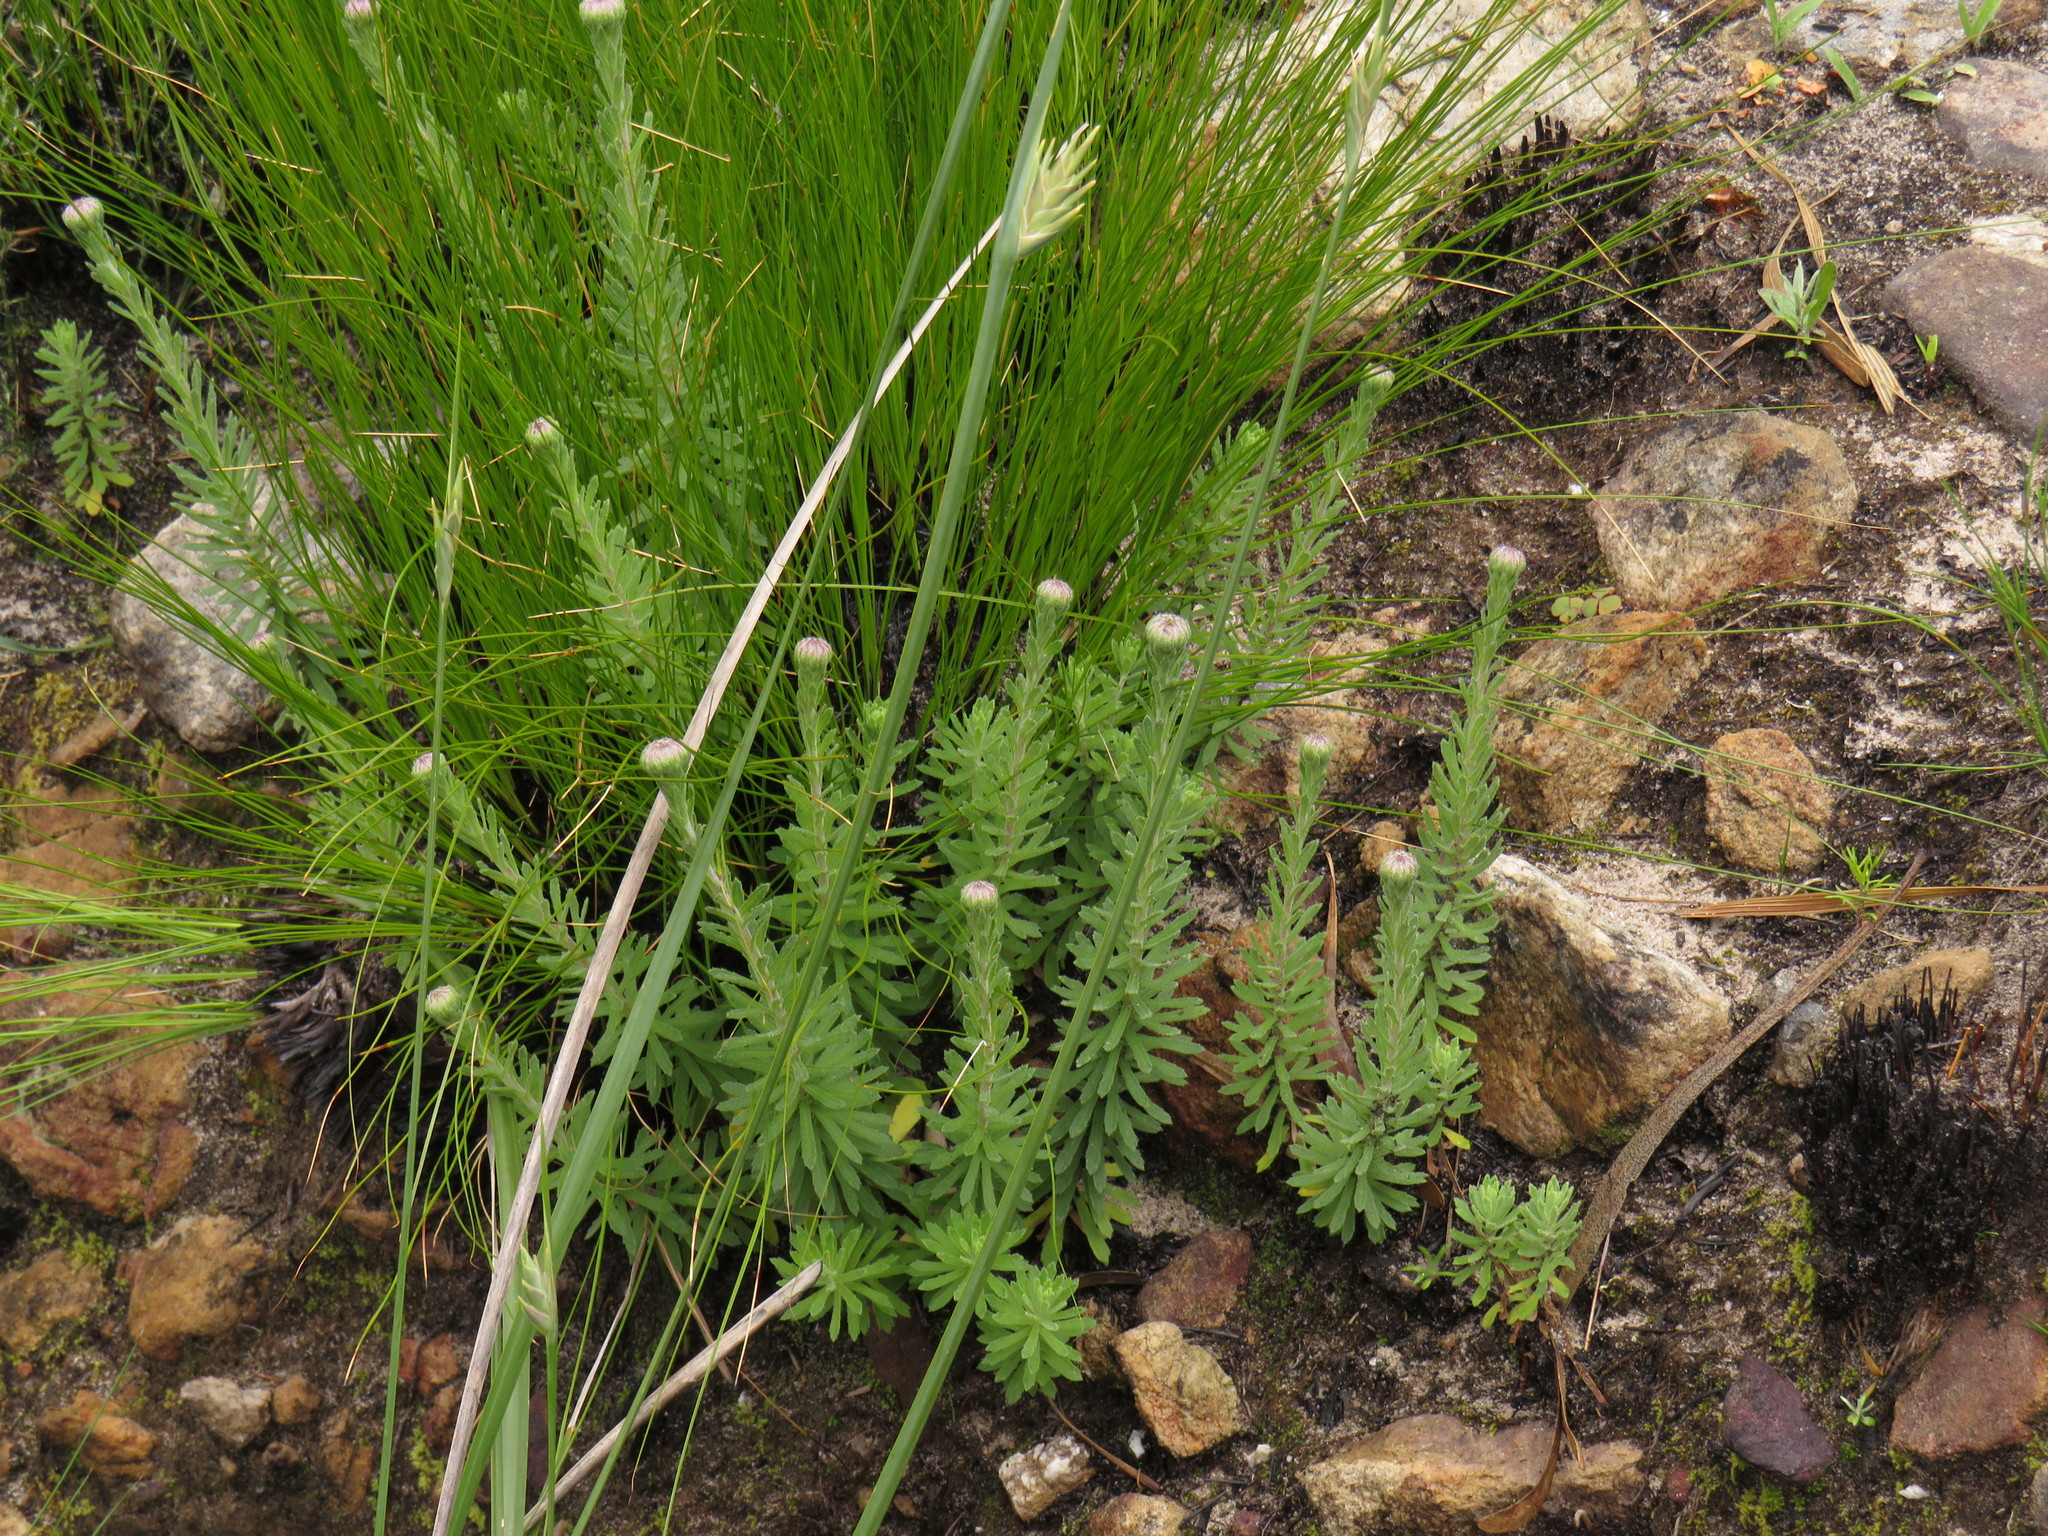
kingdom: Plantae
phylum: Tracheophyta
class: Magnoliopsida
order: Asterales
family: Asteraceae
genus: Osmitopsis
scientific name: Osmitopsis afra
